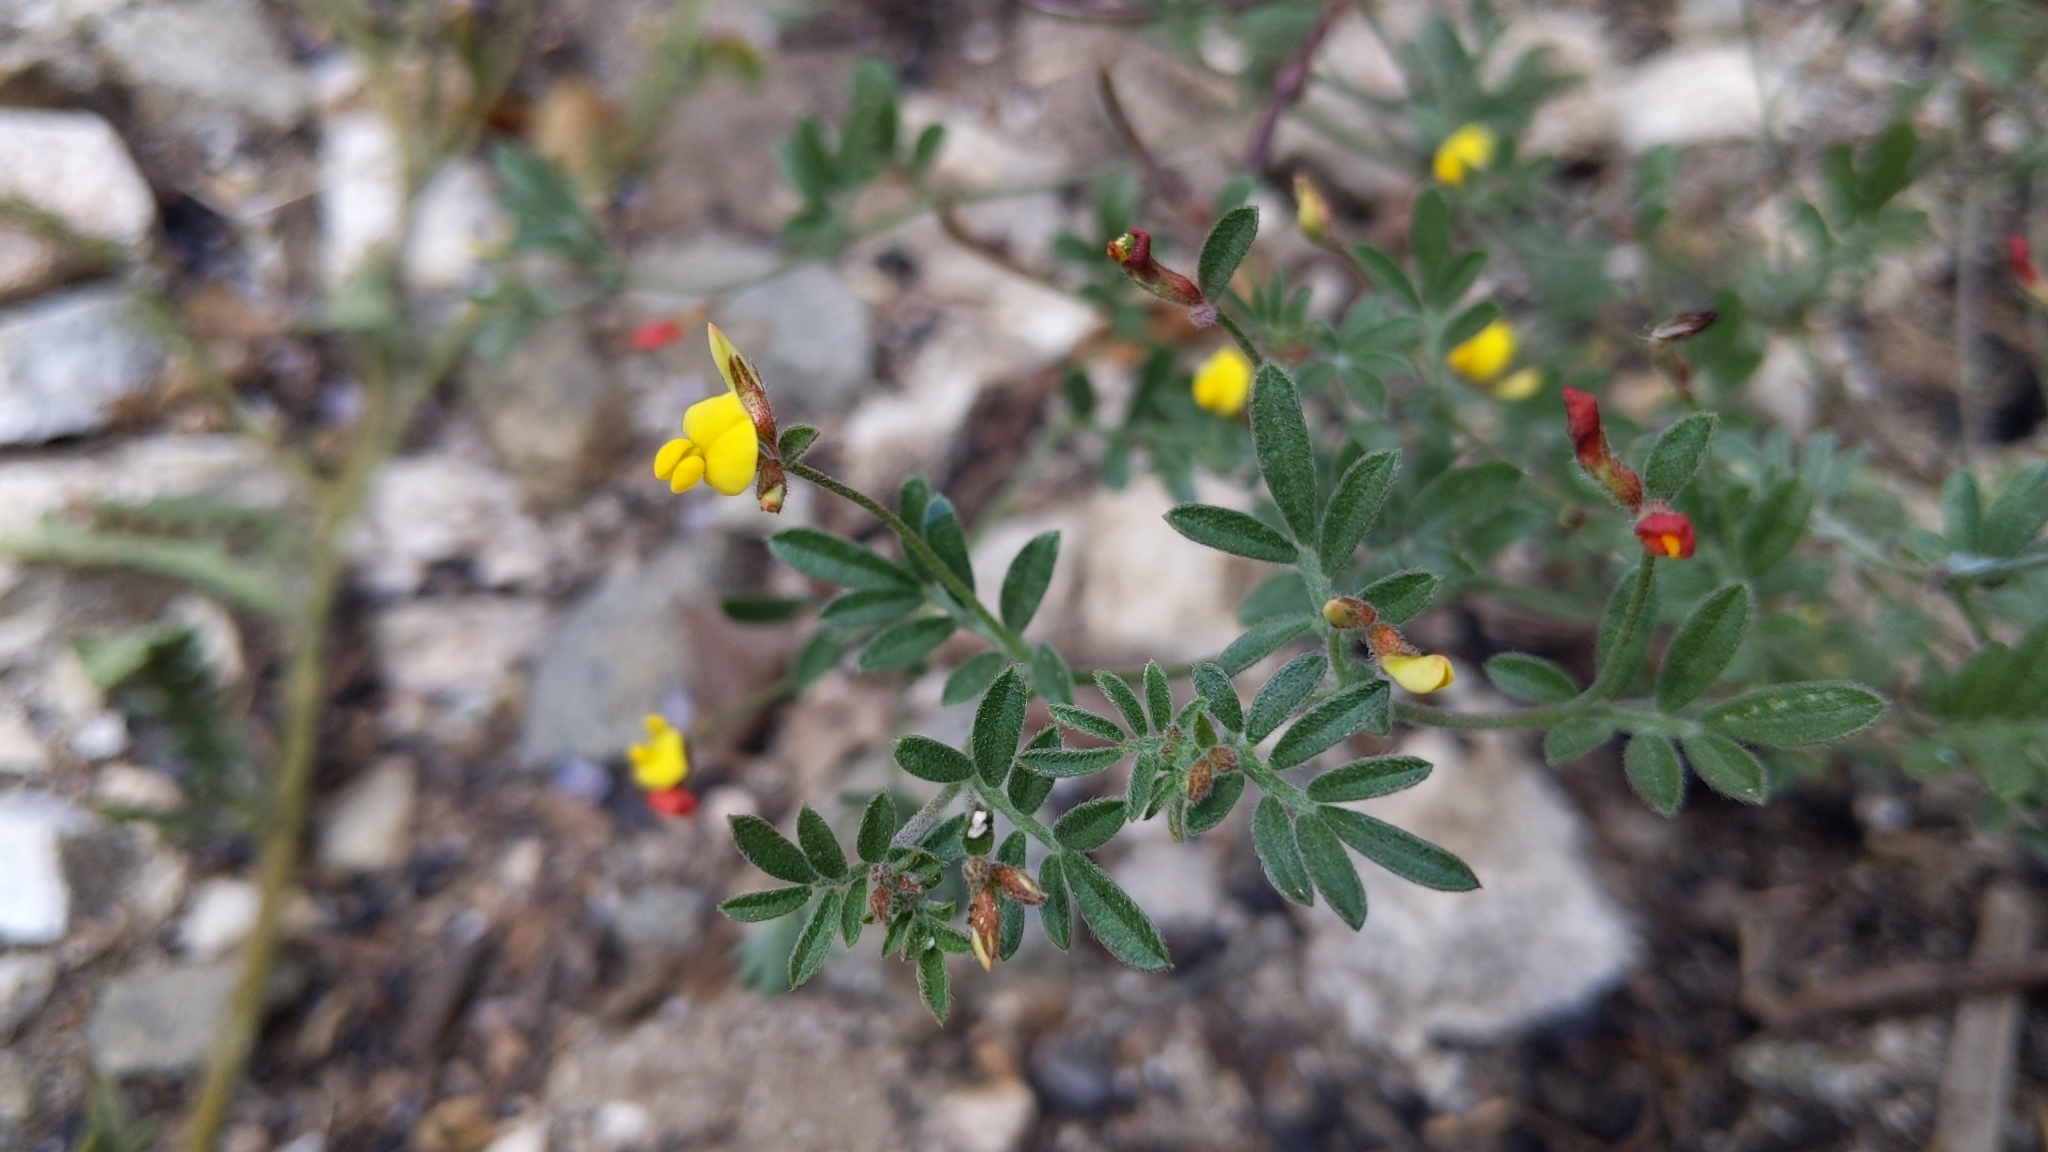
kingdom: Plantae
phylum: Tracheophyta
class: Magnoliopsida
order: Fabales
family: Fabaceae
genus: Acmispon
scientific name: Acmispon strigosus
